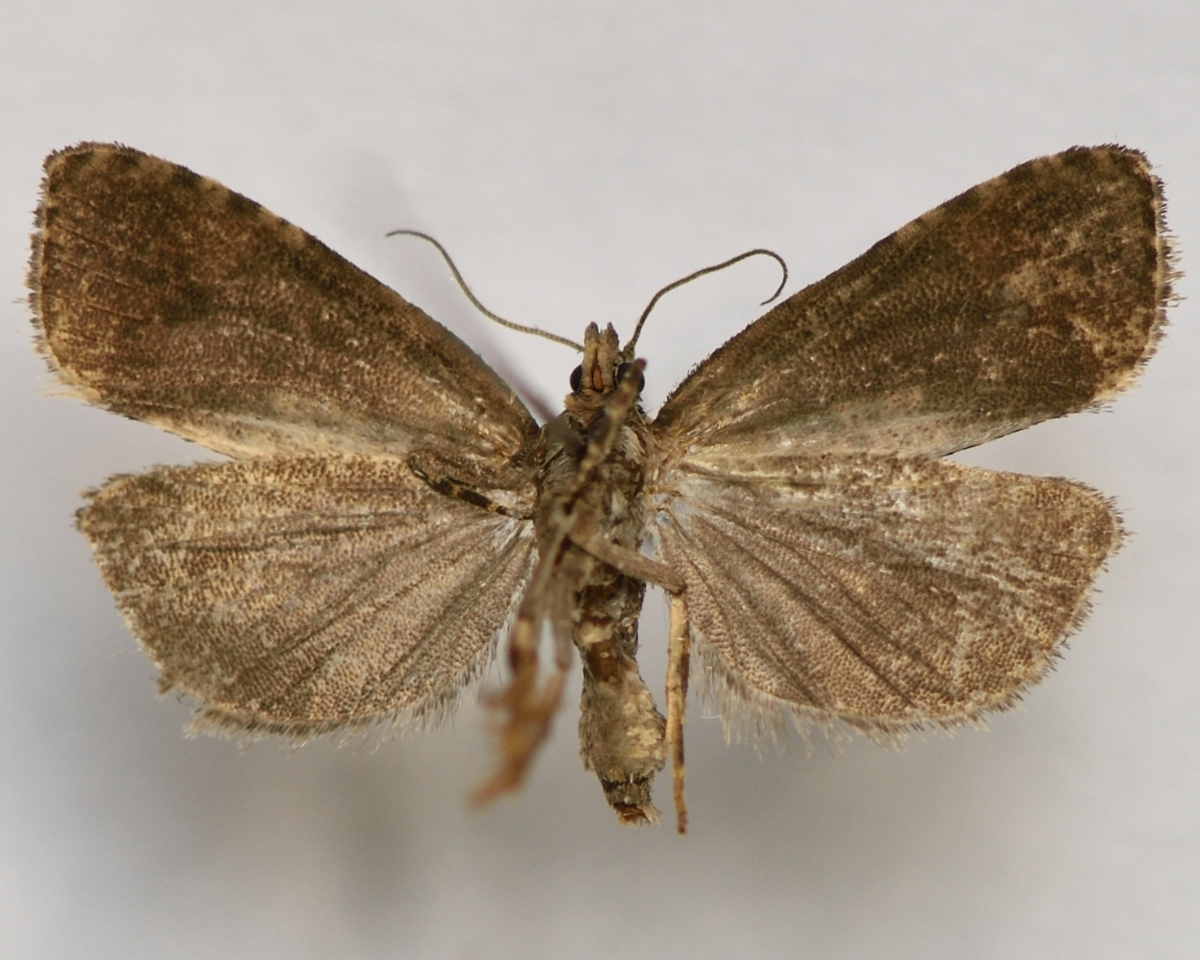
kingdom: Animalia
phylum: Arthropoda
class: Insecta
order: Lepidoptera
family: Tortricidae
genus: Hedya
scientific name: Hedya ochroleucana
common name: Buff-tipped marble
